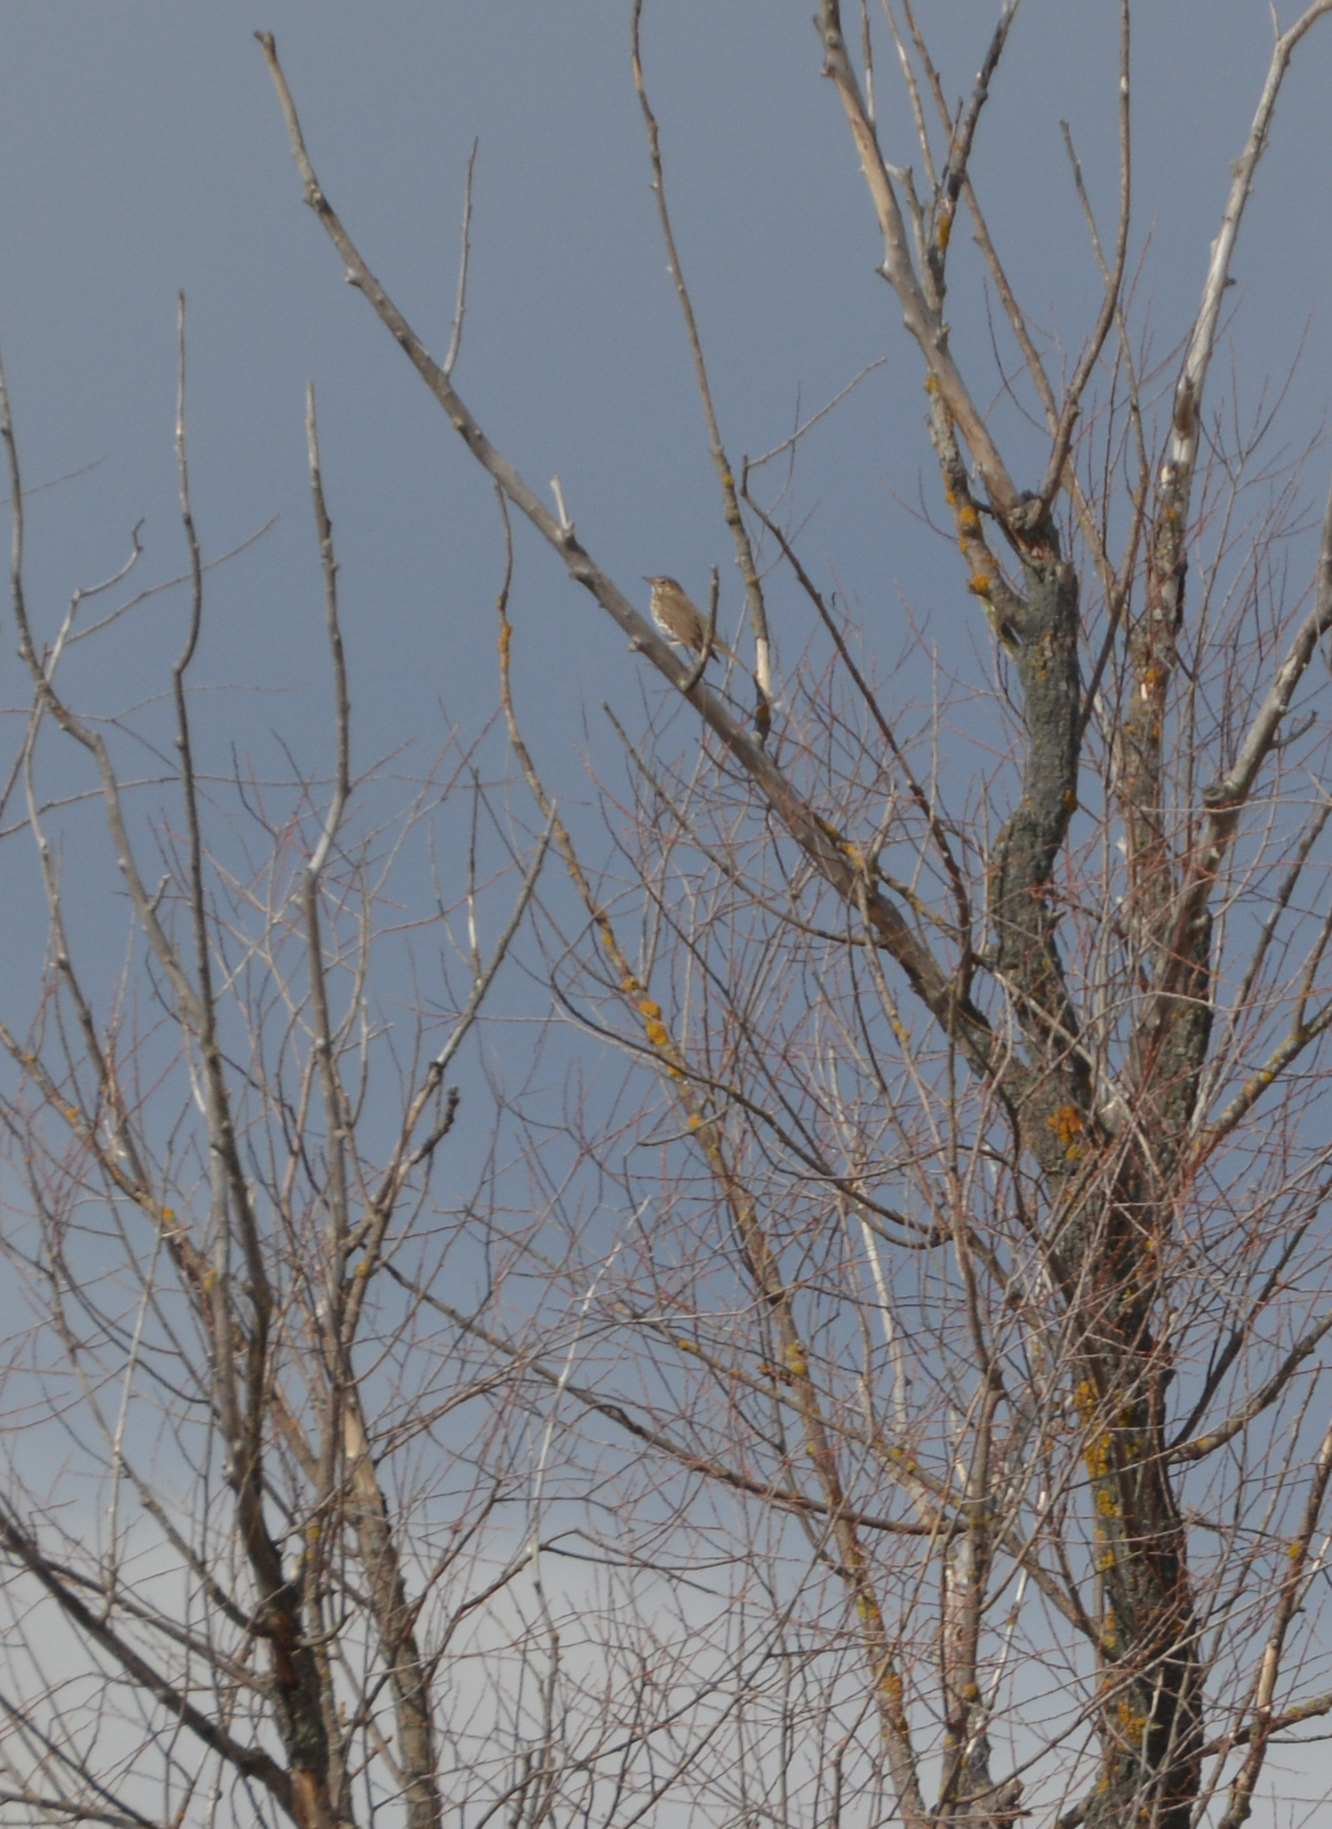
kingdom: Animalia
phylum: Chordata
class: Aves
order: Passeriformes
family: Turdidae
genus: Turdus
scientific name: Turdus philomelos
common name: Song thrush
